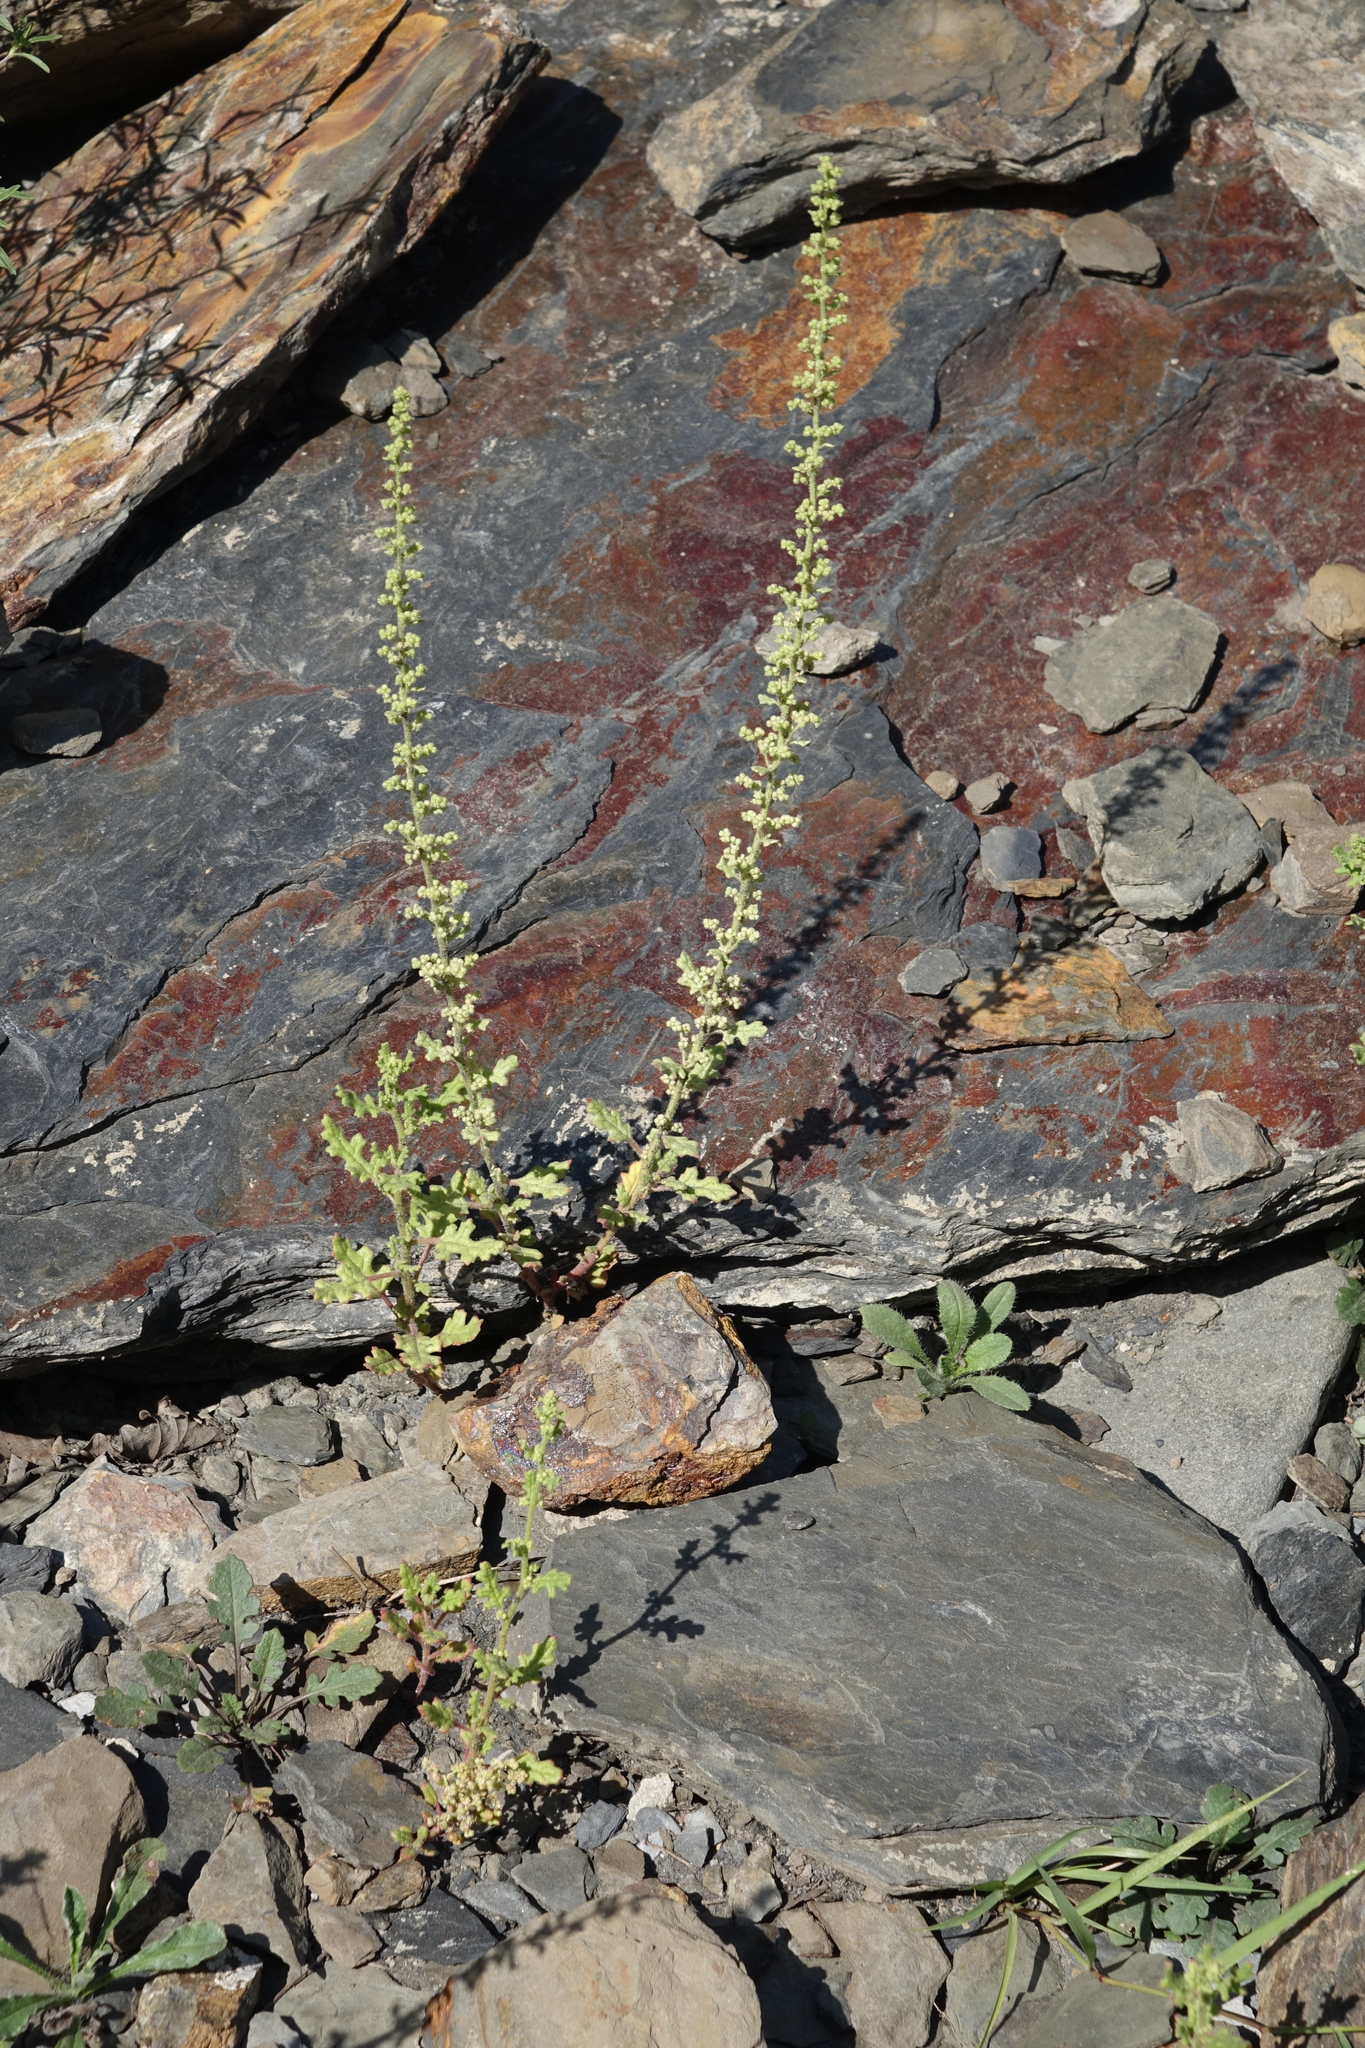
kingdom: Plantae
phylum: Tracheophyta
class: Magnoliopsida
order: Caryophyllales
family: Amaranthaceae
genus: Dysphania
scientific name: Dysphania botrys
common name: Feather-geranium
